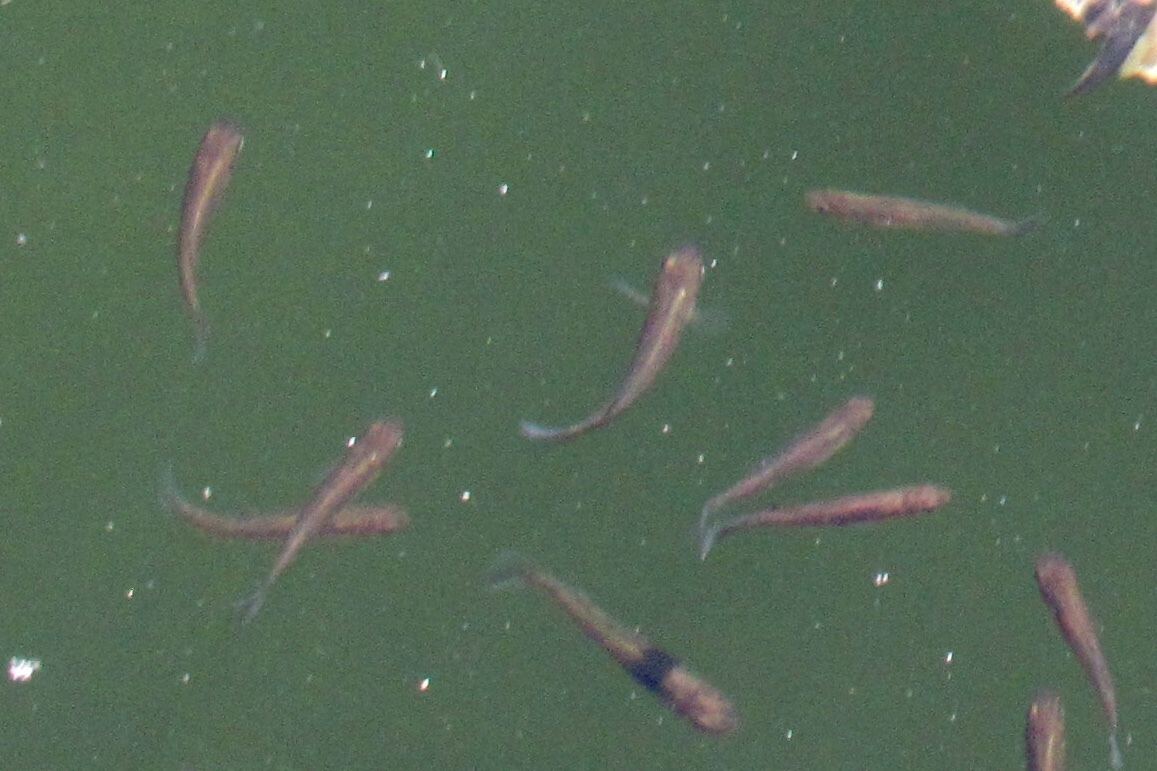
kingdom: Animalia
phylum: Chordata
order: Cyprinodontiformes
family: Poeciliidae
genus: Gambusia
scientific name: Gambusia affinis
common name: Mosquitofish
